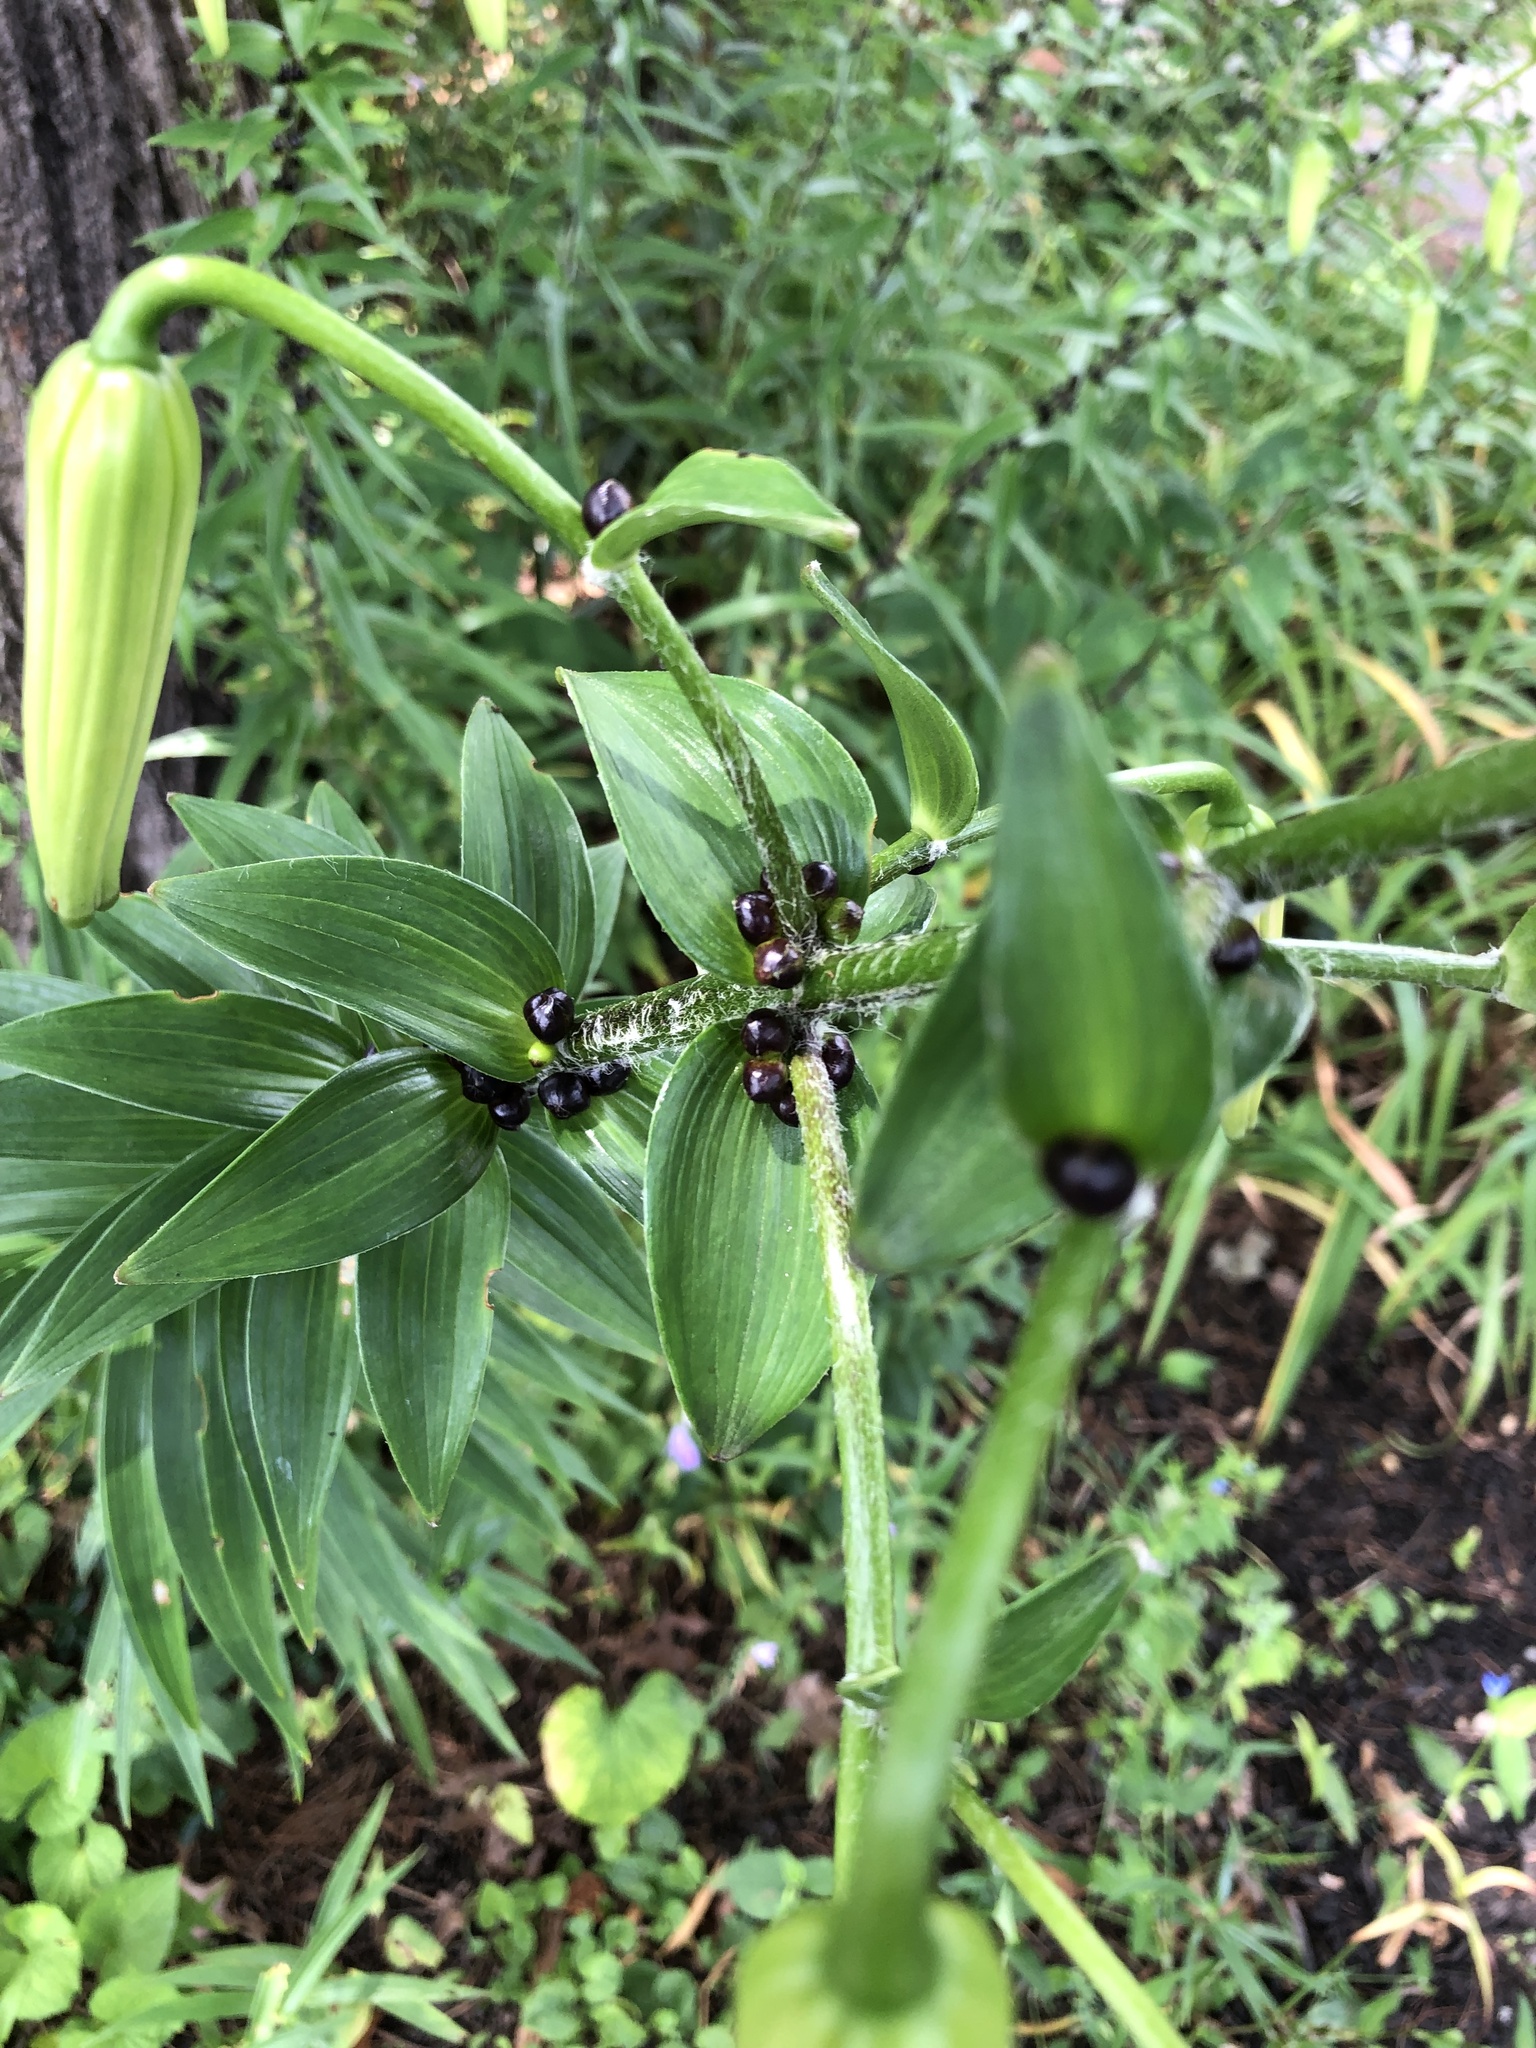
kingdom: Plantae
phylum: Tracheophyta
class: Liliopsida
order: Liliales
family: Liliaceae
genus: Lilium
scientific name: Lilium lancifolium
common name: Tiger lily
